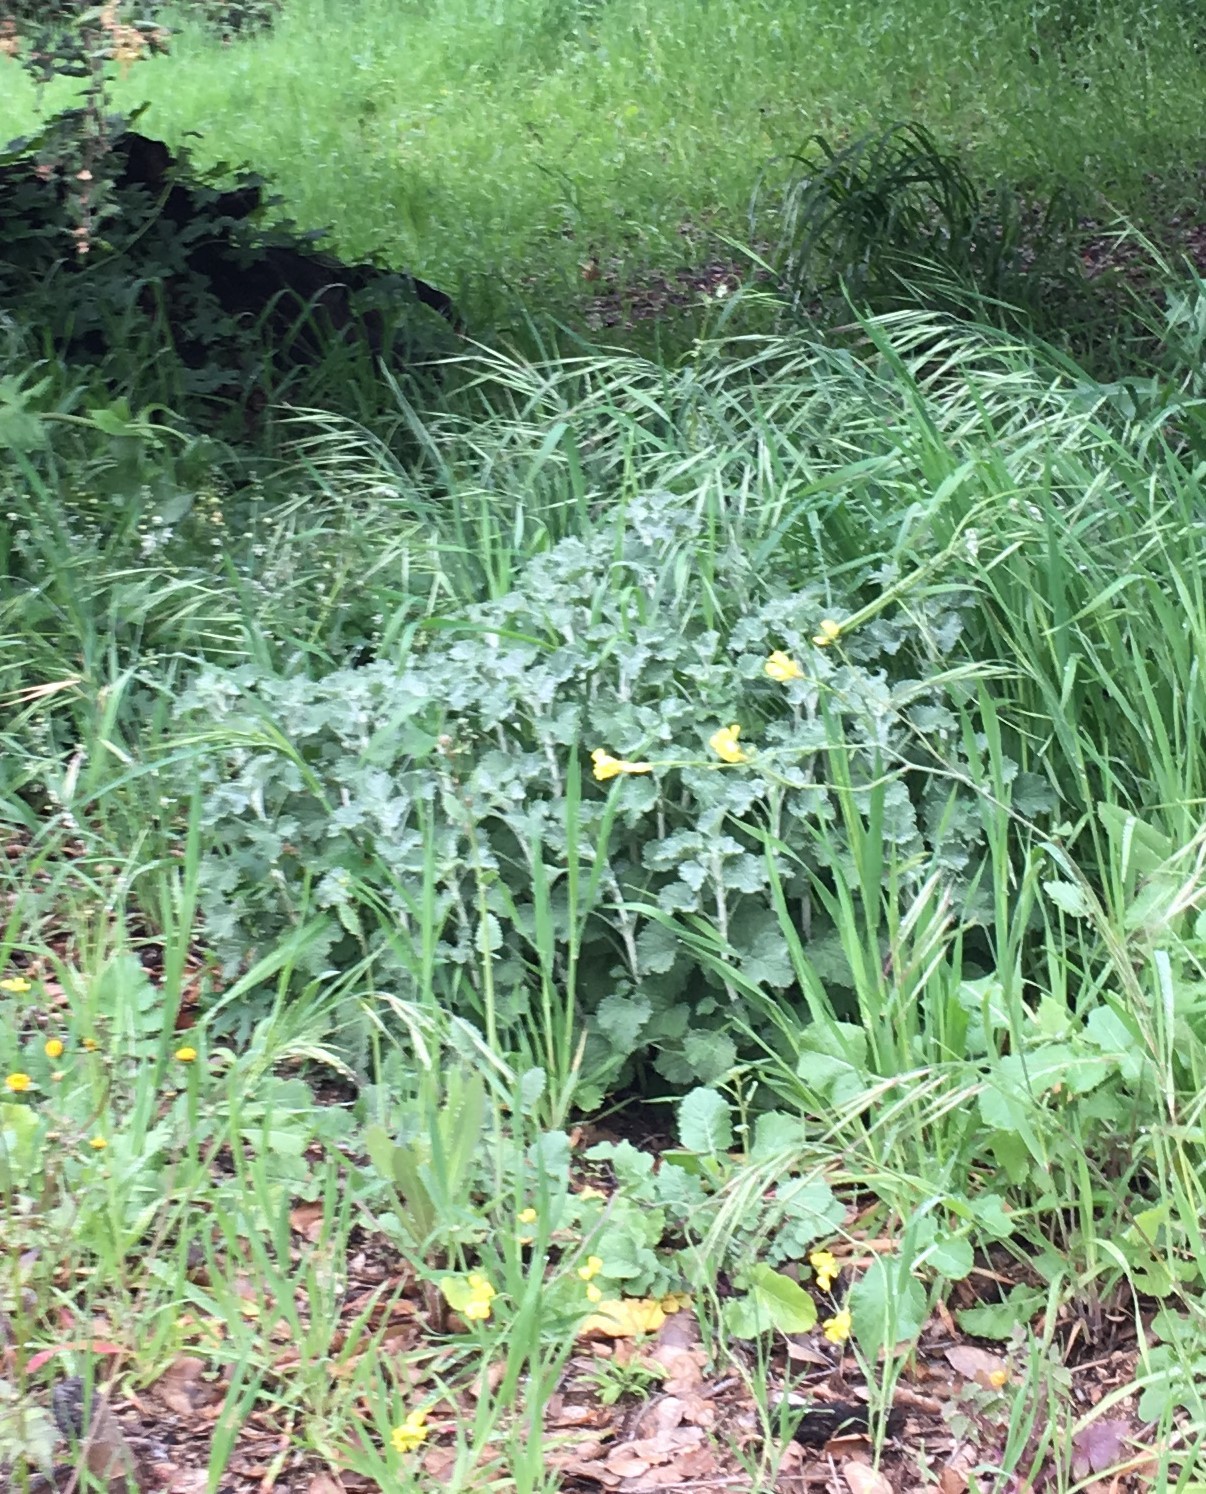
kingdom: Plantae
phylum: Tracheophyta
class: Magnoliopsida
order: Lamiales
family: Lamiaceae
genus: Marrubium
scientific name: Marrubium vulgare
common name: Horehound
